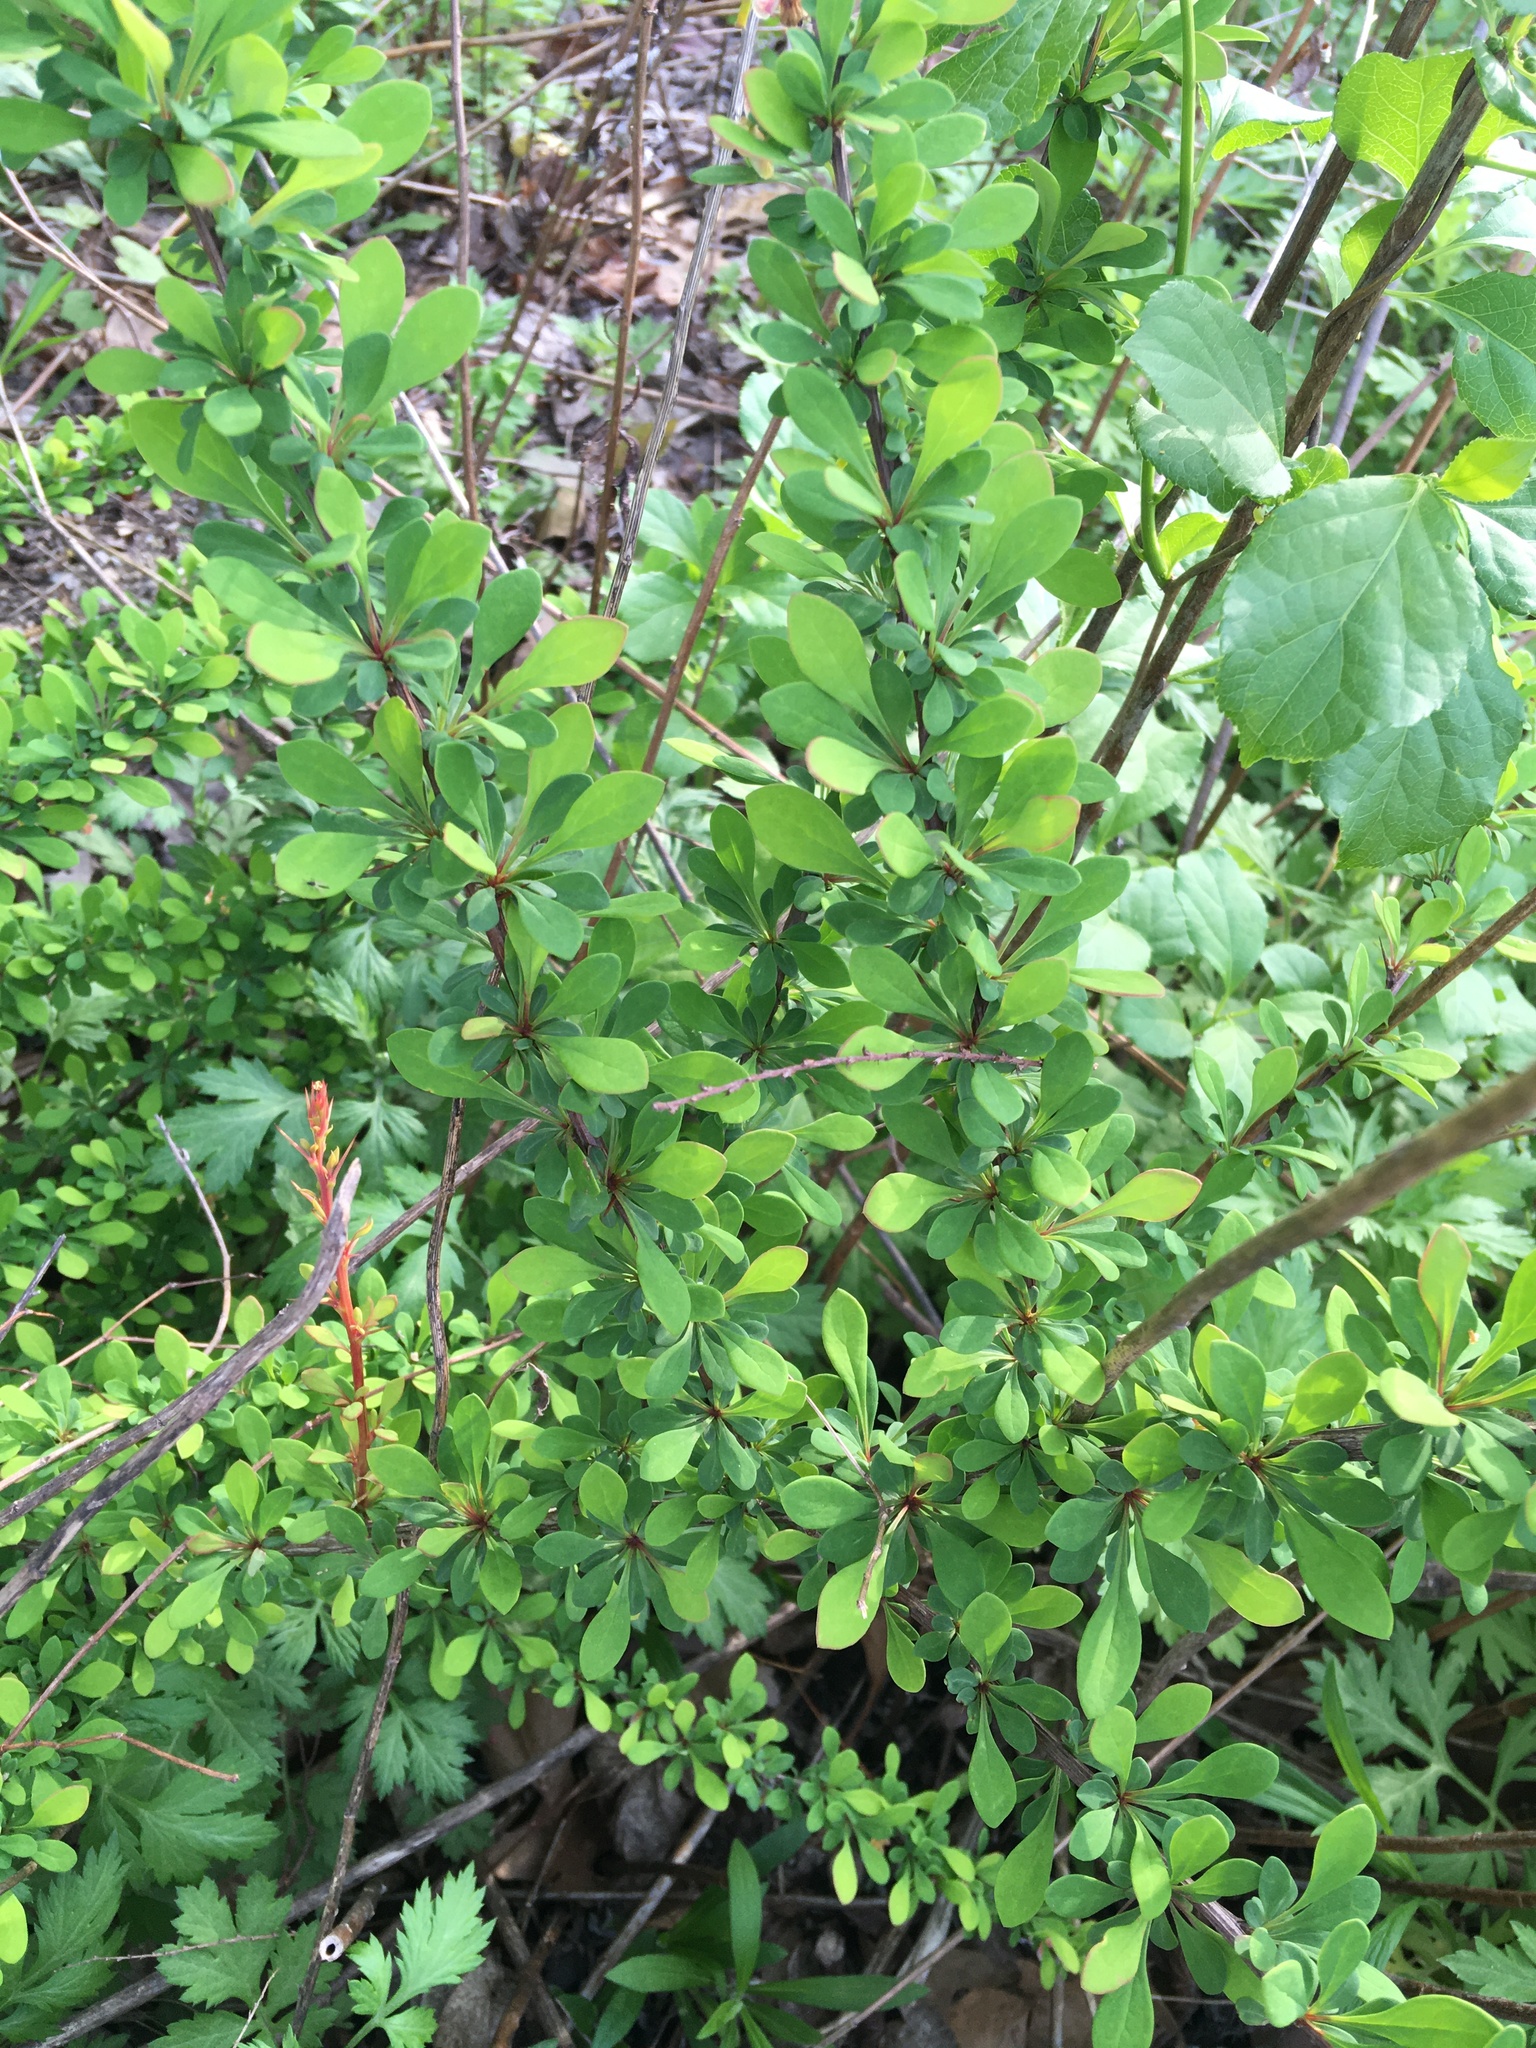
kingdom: Plantae
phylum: Tracheophyta
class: Magnoliopsida
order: Ranunculales
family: Berberidaceae
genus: Berberis
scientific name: Berberis thunbergii
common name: Japanese barberry
